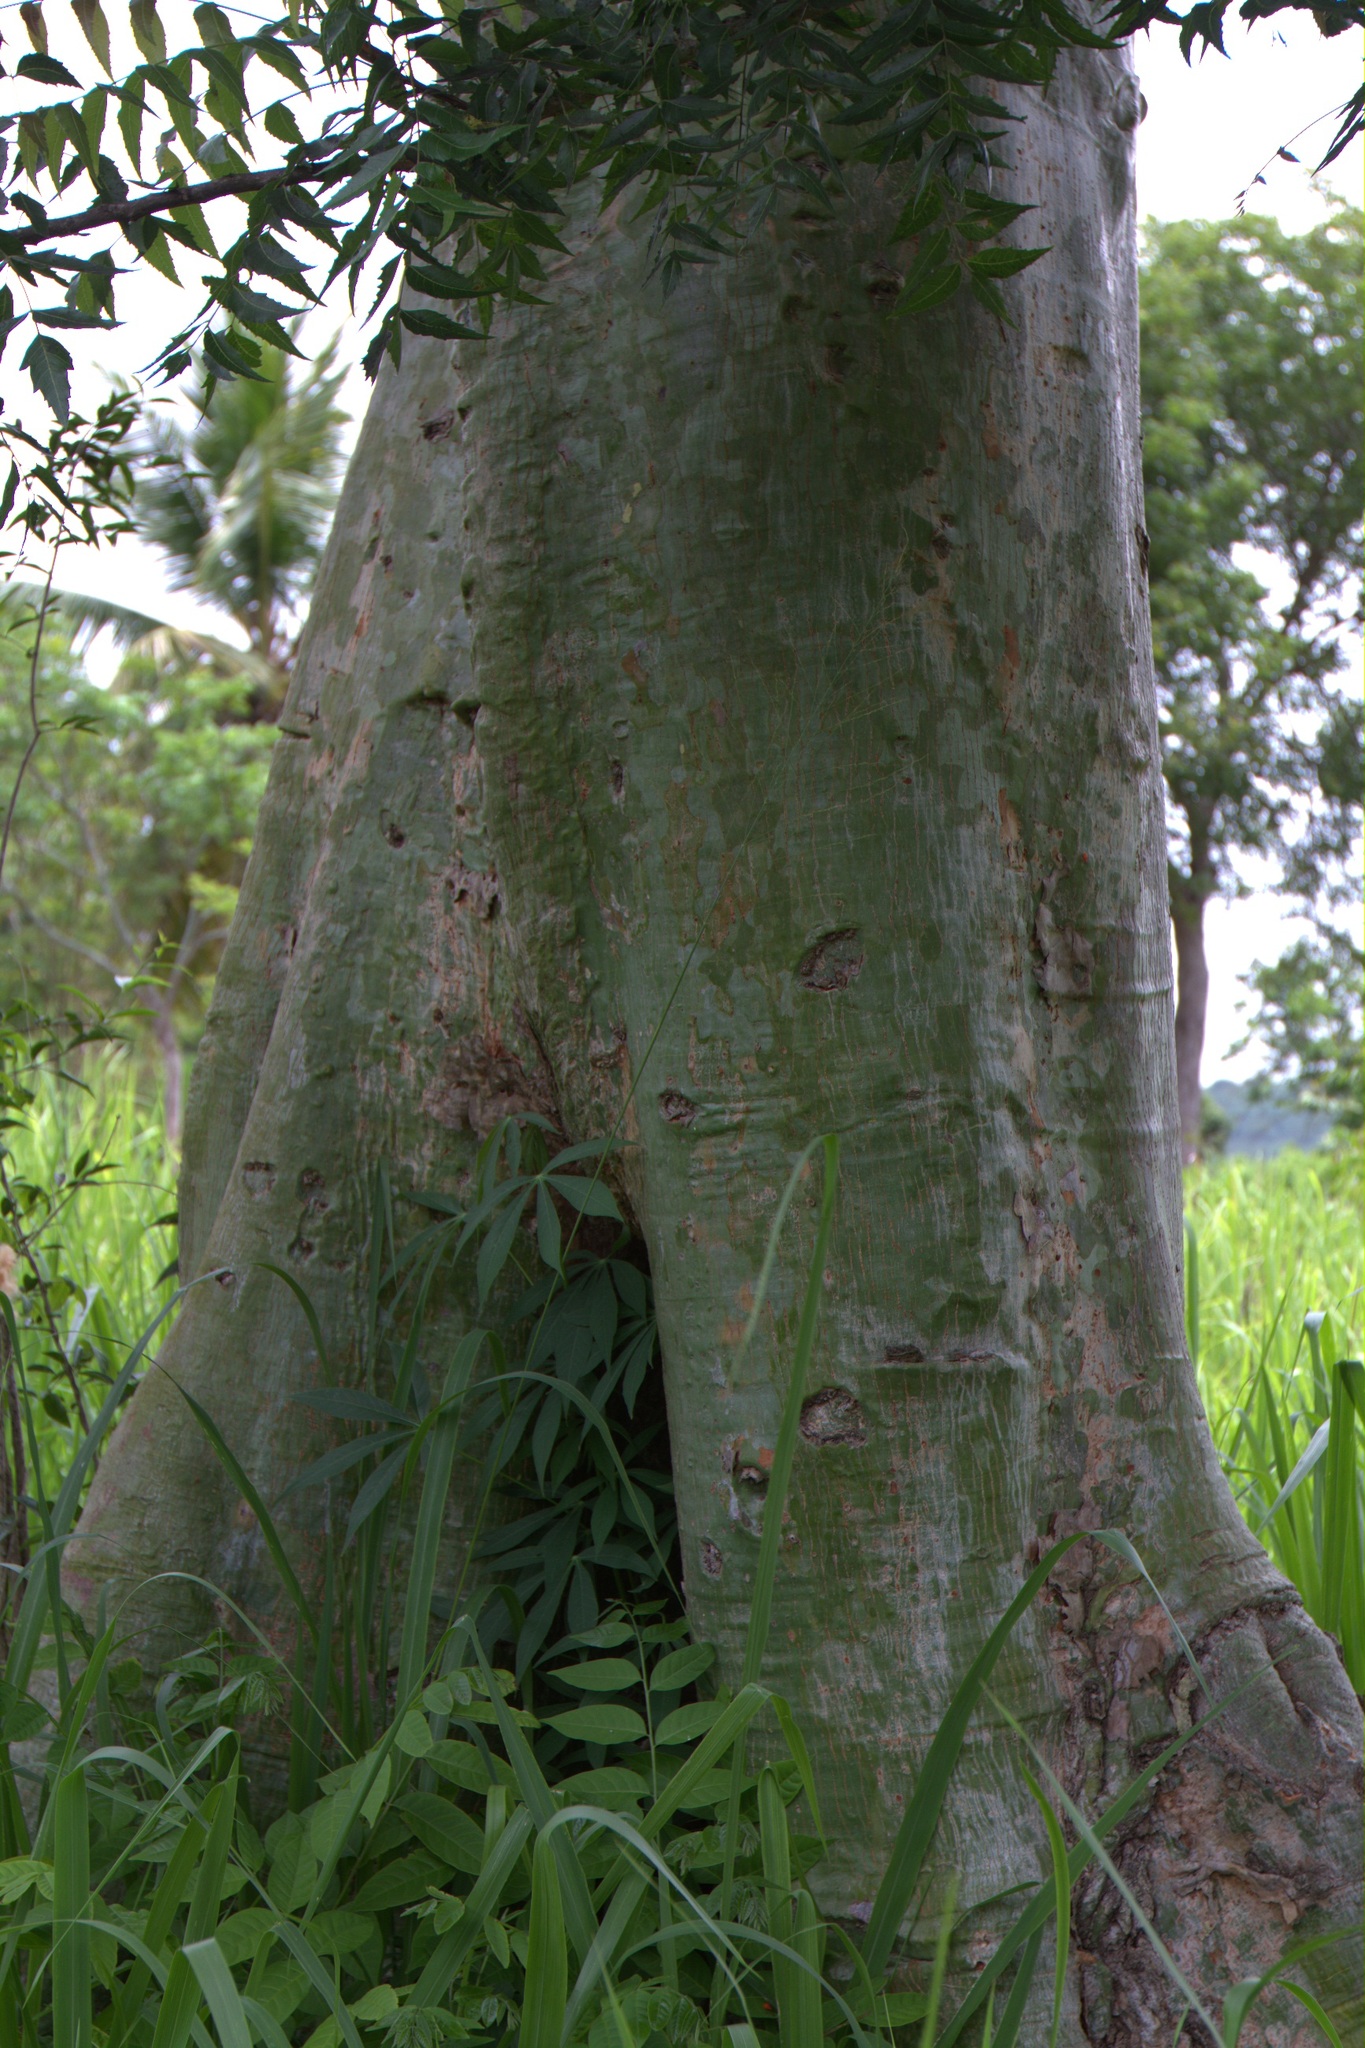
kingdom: Plantae
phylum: Tracheophyta
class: Magnoliopsida
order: Malvales
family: Malvaceae
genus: Pachira
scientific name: Pachira sessilis
